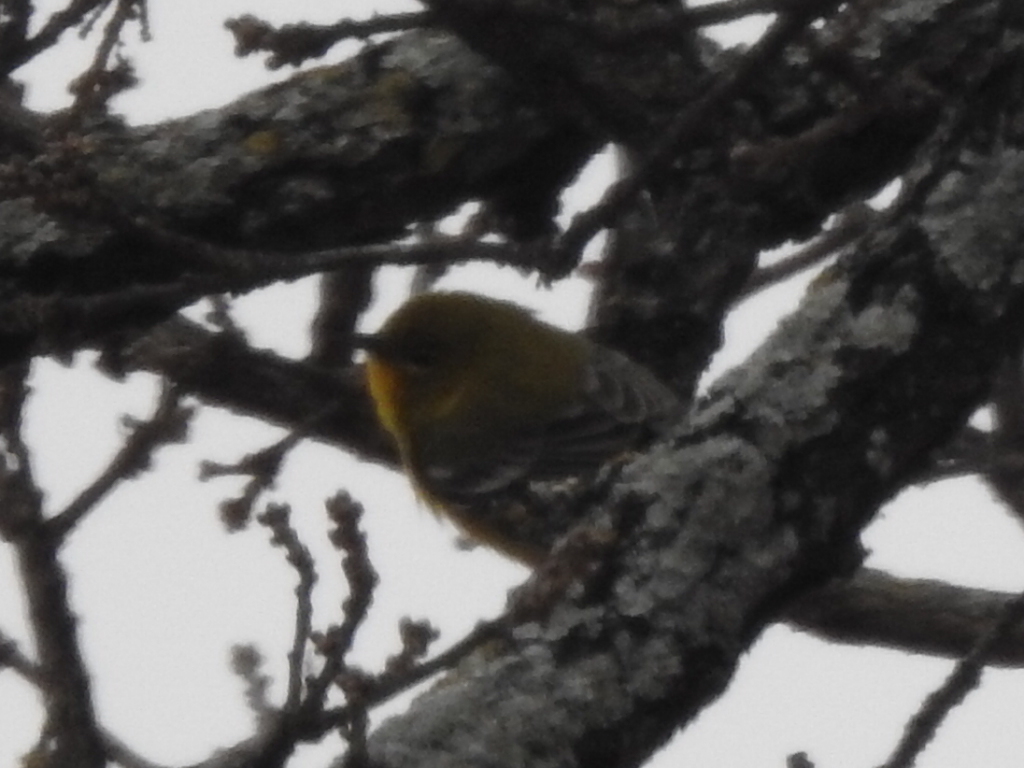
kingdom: Animalia
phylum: Chordata
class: Aves
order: Passeriformes
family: Parulidae
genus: Setophaga
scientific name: Setophaga pinus
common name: Pine warbler
